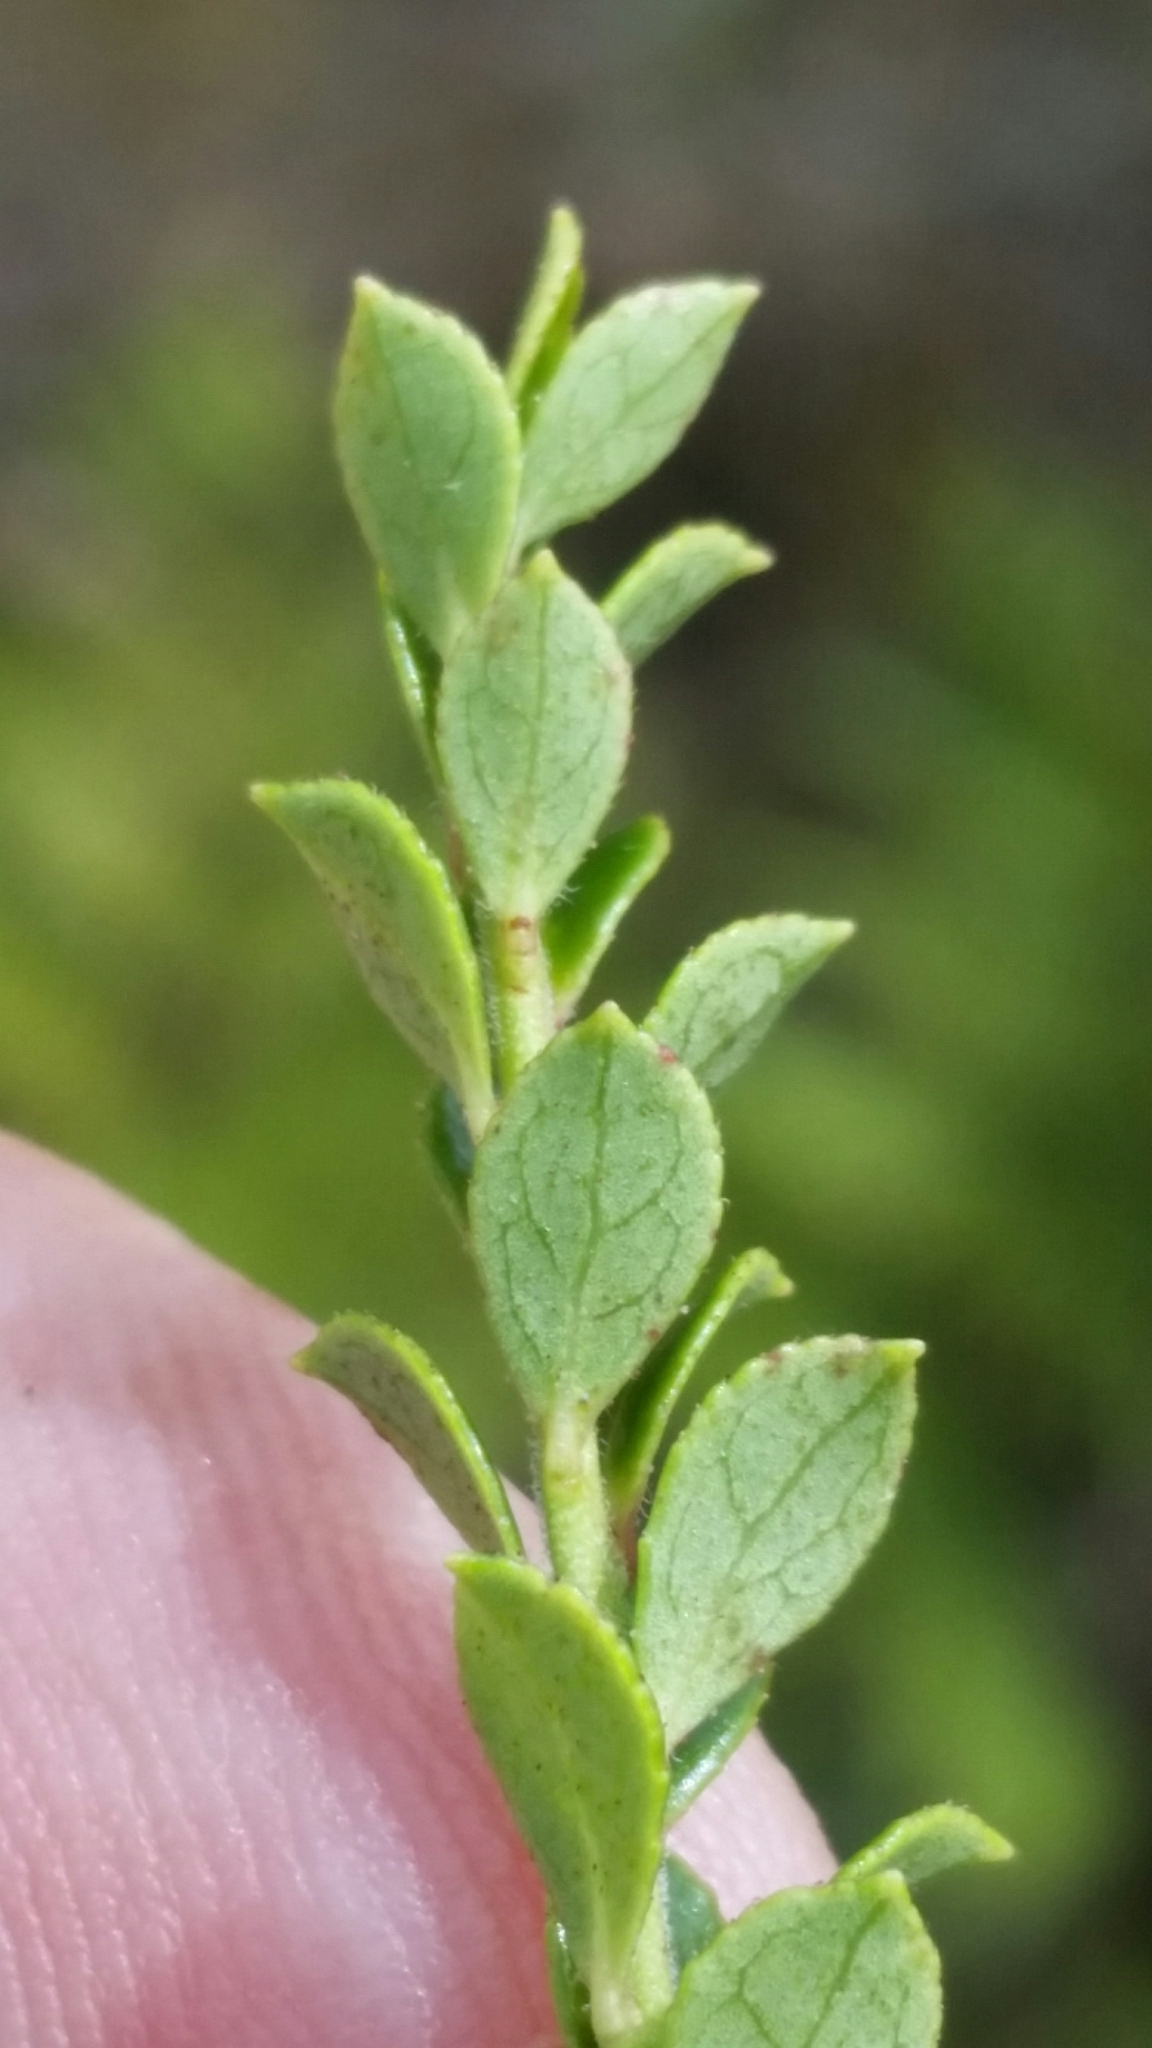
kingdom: Plantae
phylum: Tracheophyta
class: Magnoliopsida
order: Ericales
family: Ericaceae
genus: Vaccinium
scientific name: Vaccinium myrsinites
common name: Evergreen blueberry
